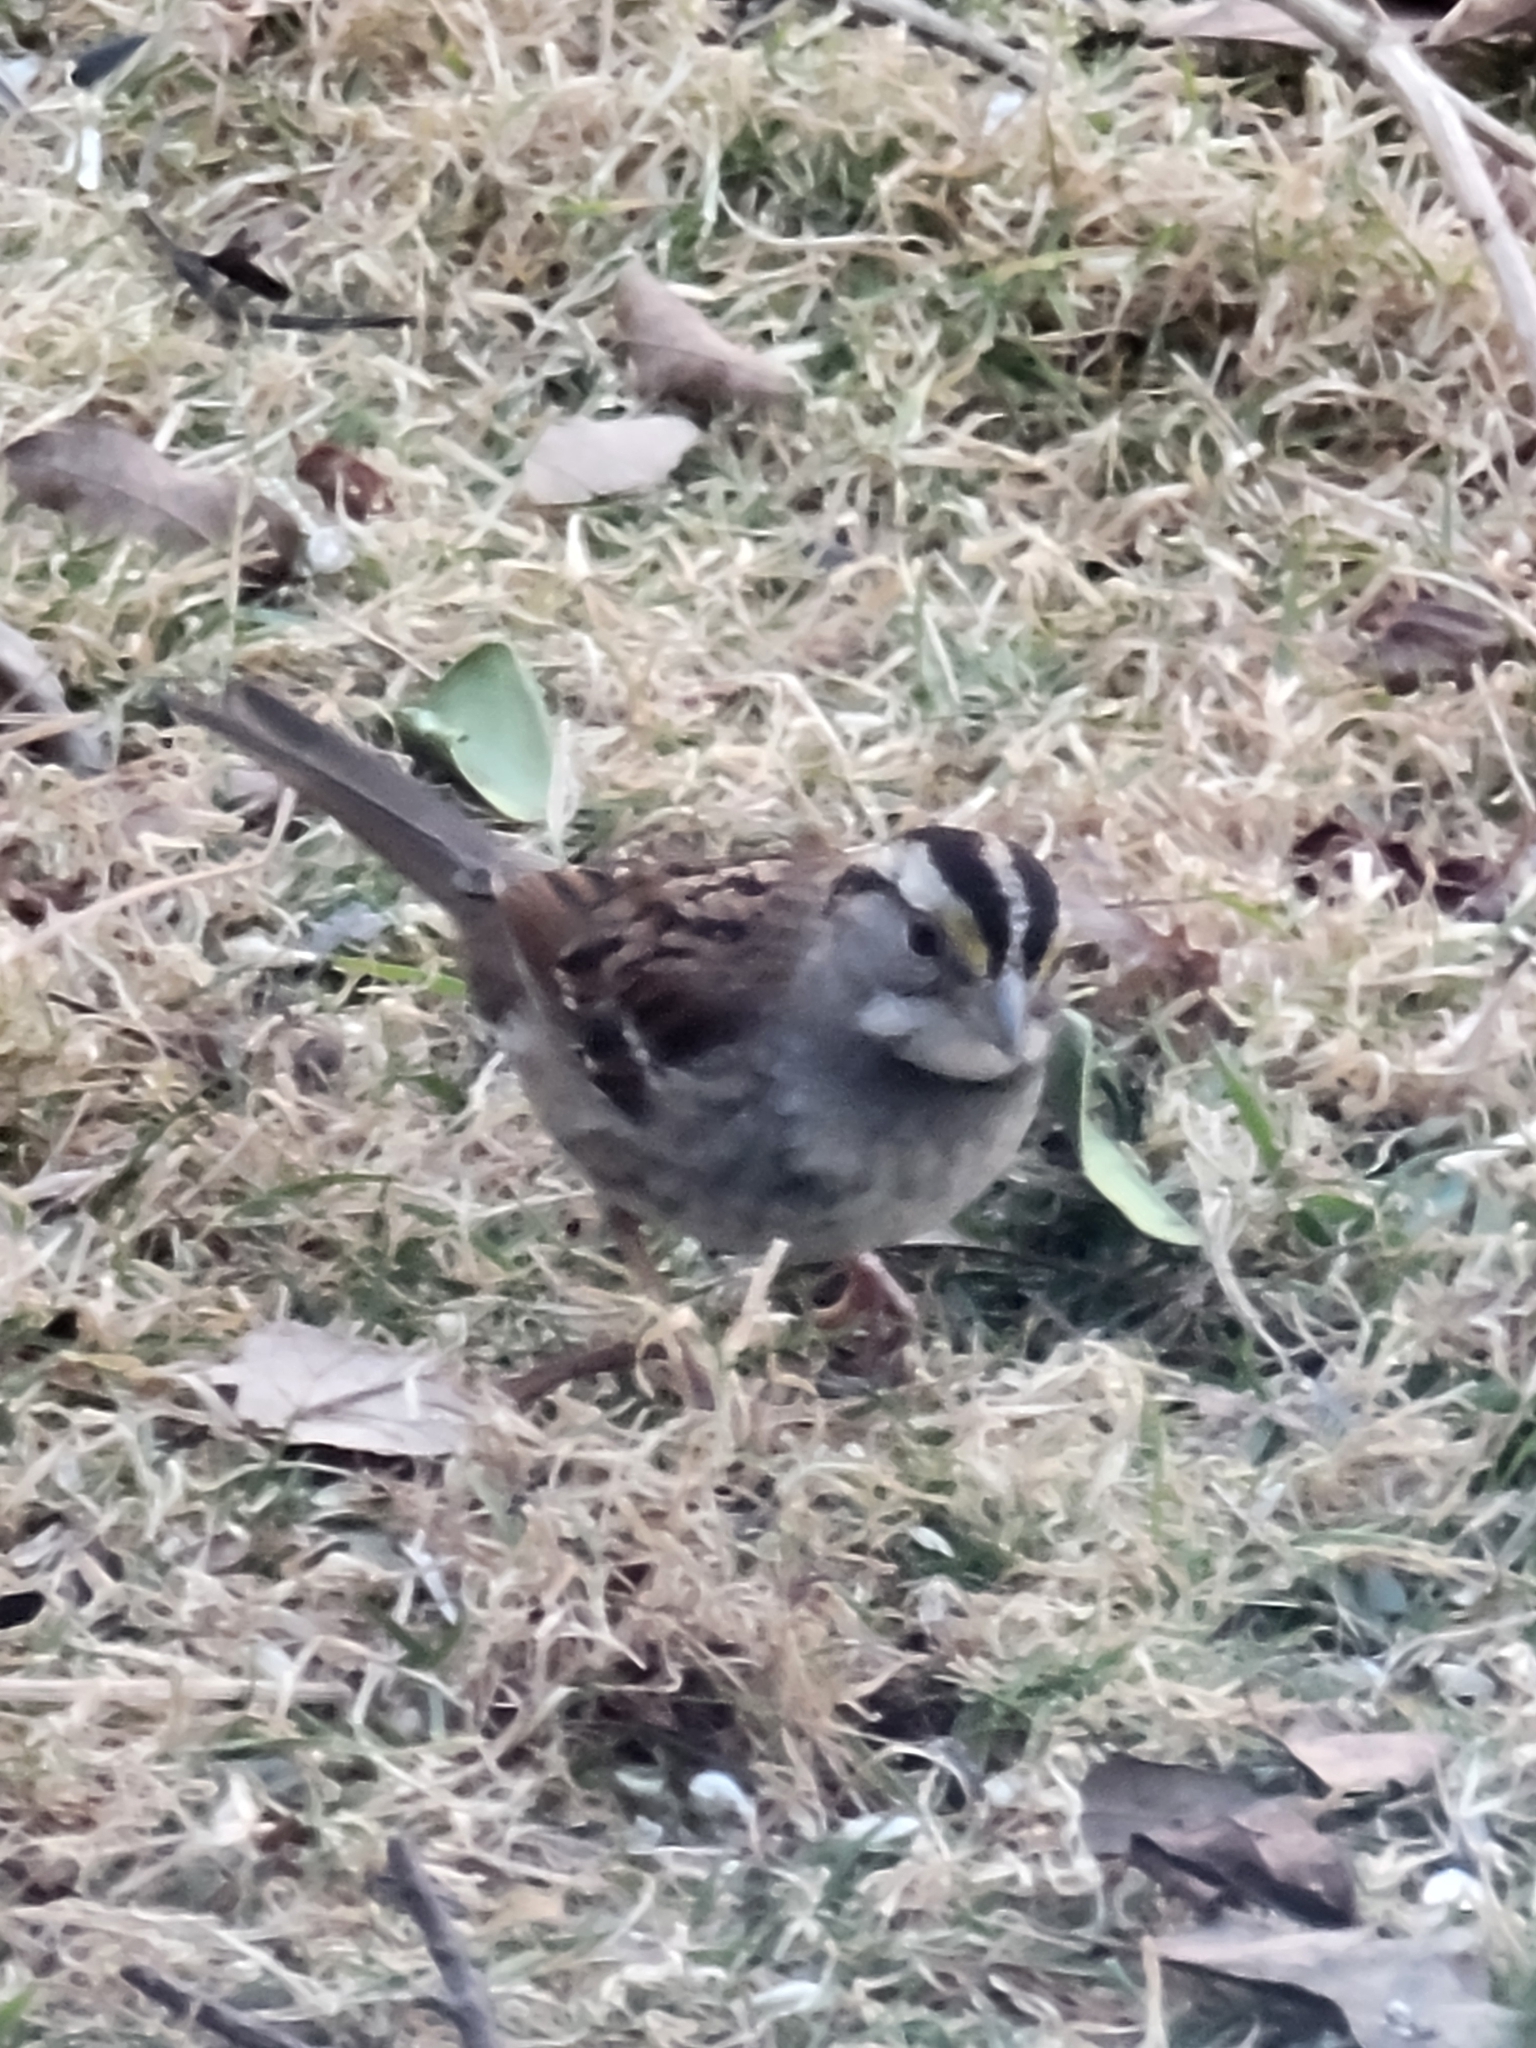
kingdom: Animalia
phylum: Chordata
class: Aves
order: Passeriformes
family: Passerellidae
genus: Zonotrichia
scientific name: Zonotrichia albicollis
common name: White-throated sparrow
